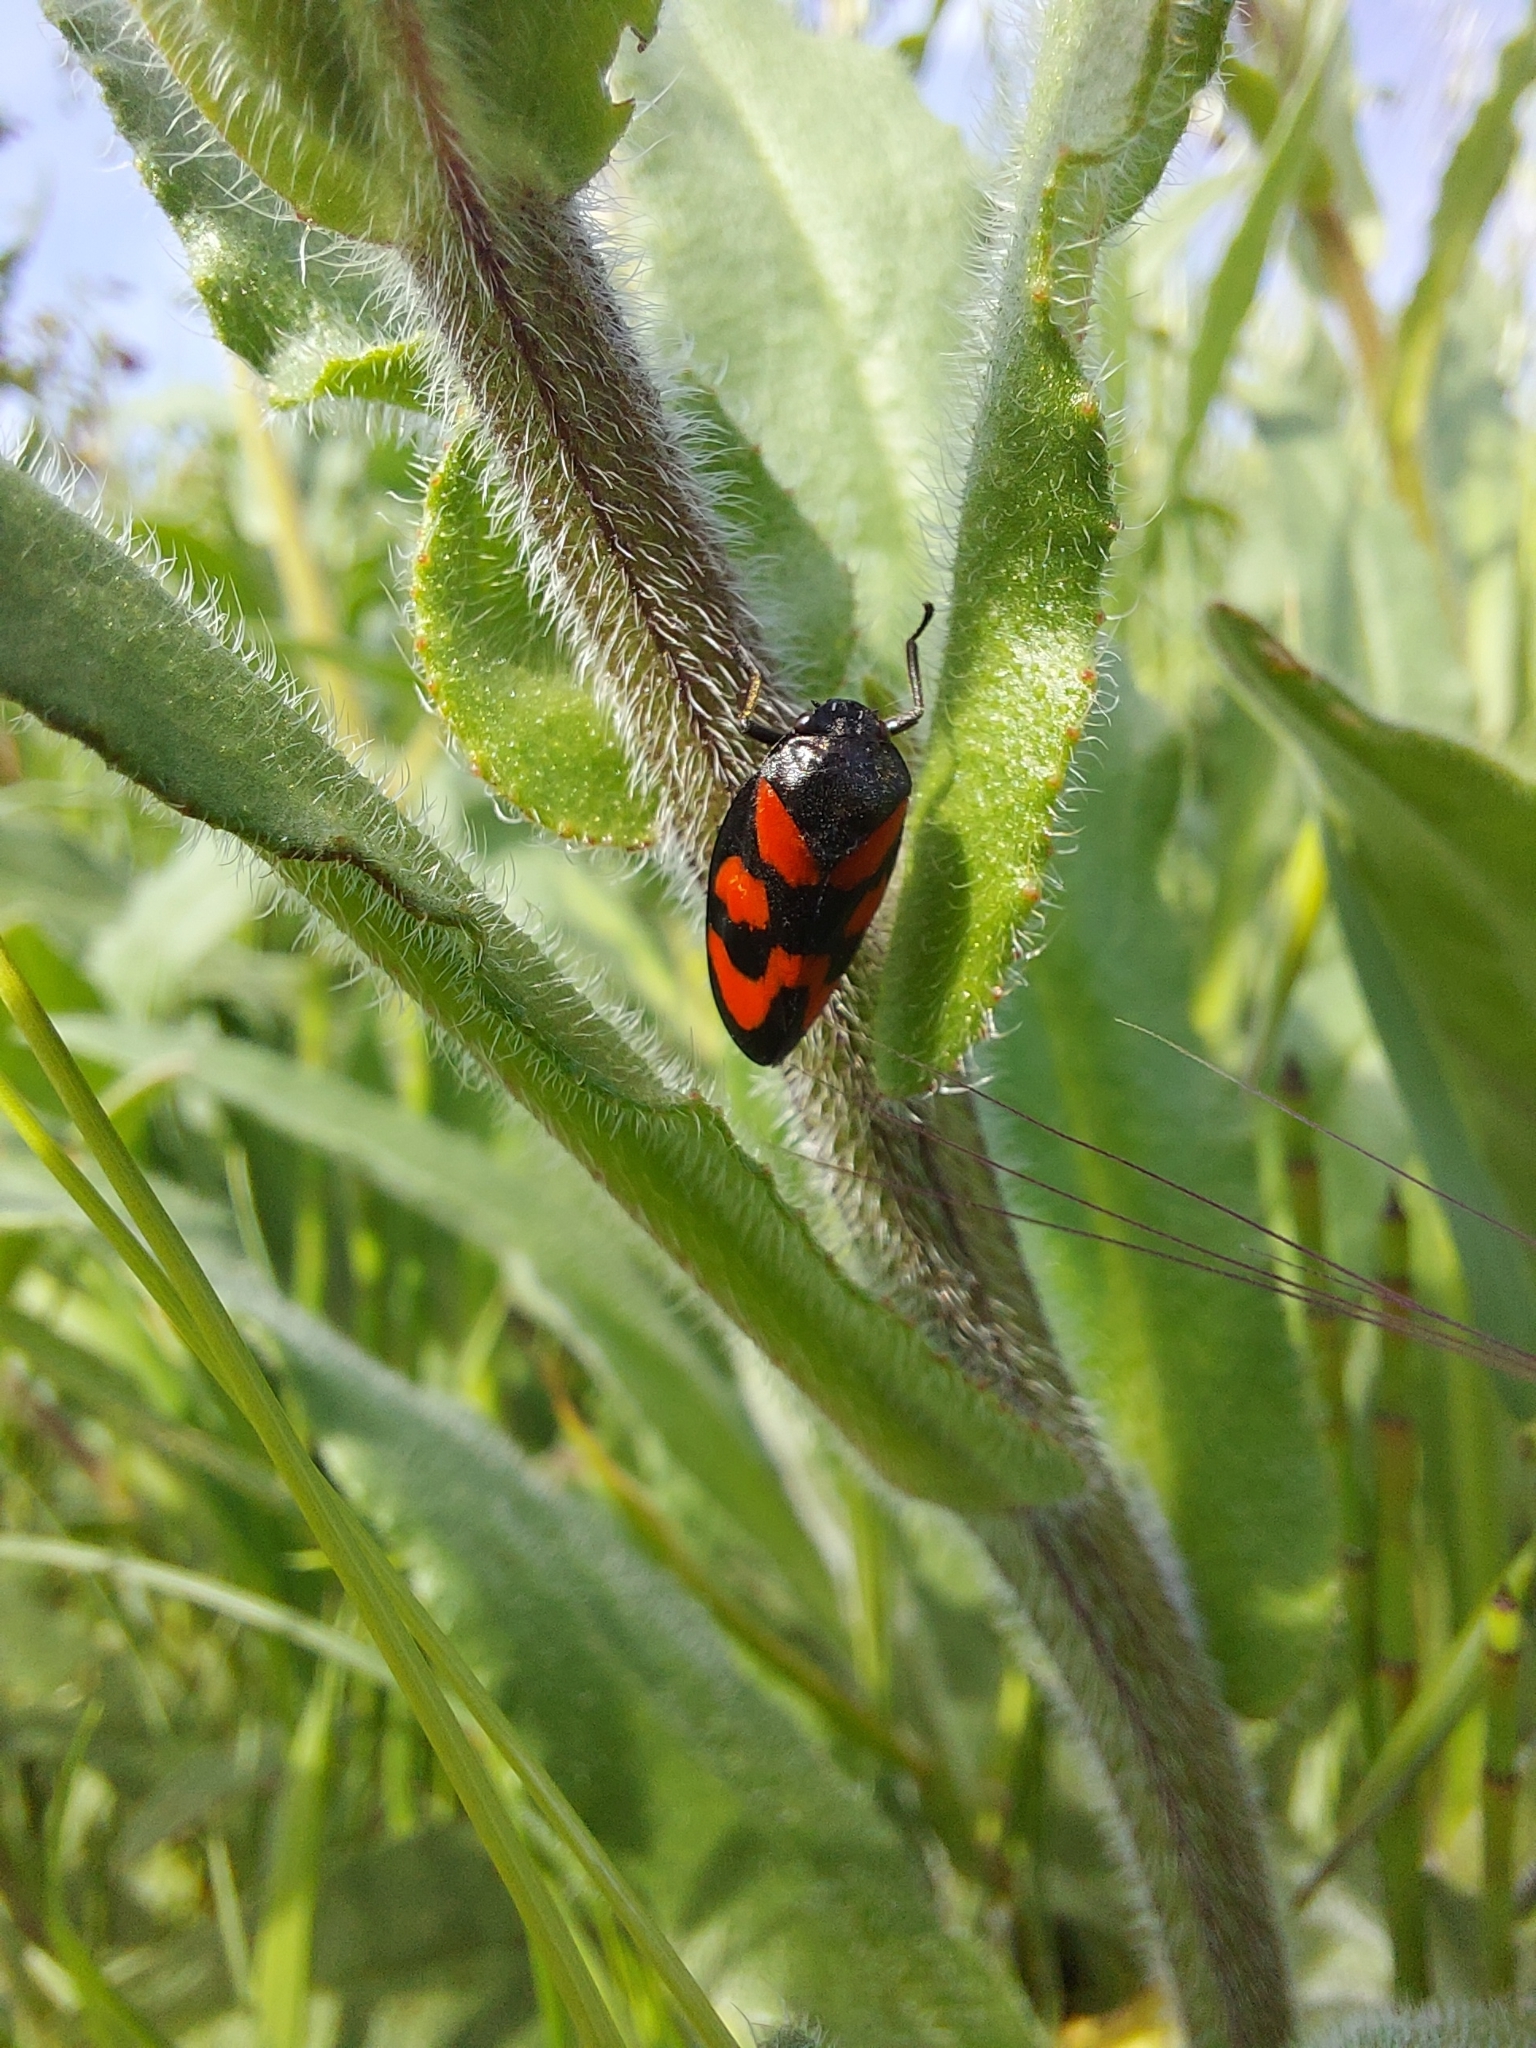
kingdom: Animalia
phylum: Arthropoda
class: Insecta
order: Hemiptera
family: Cercopidae
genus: Cercopis
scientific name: Cercopis vulnerata
